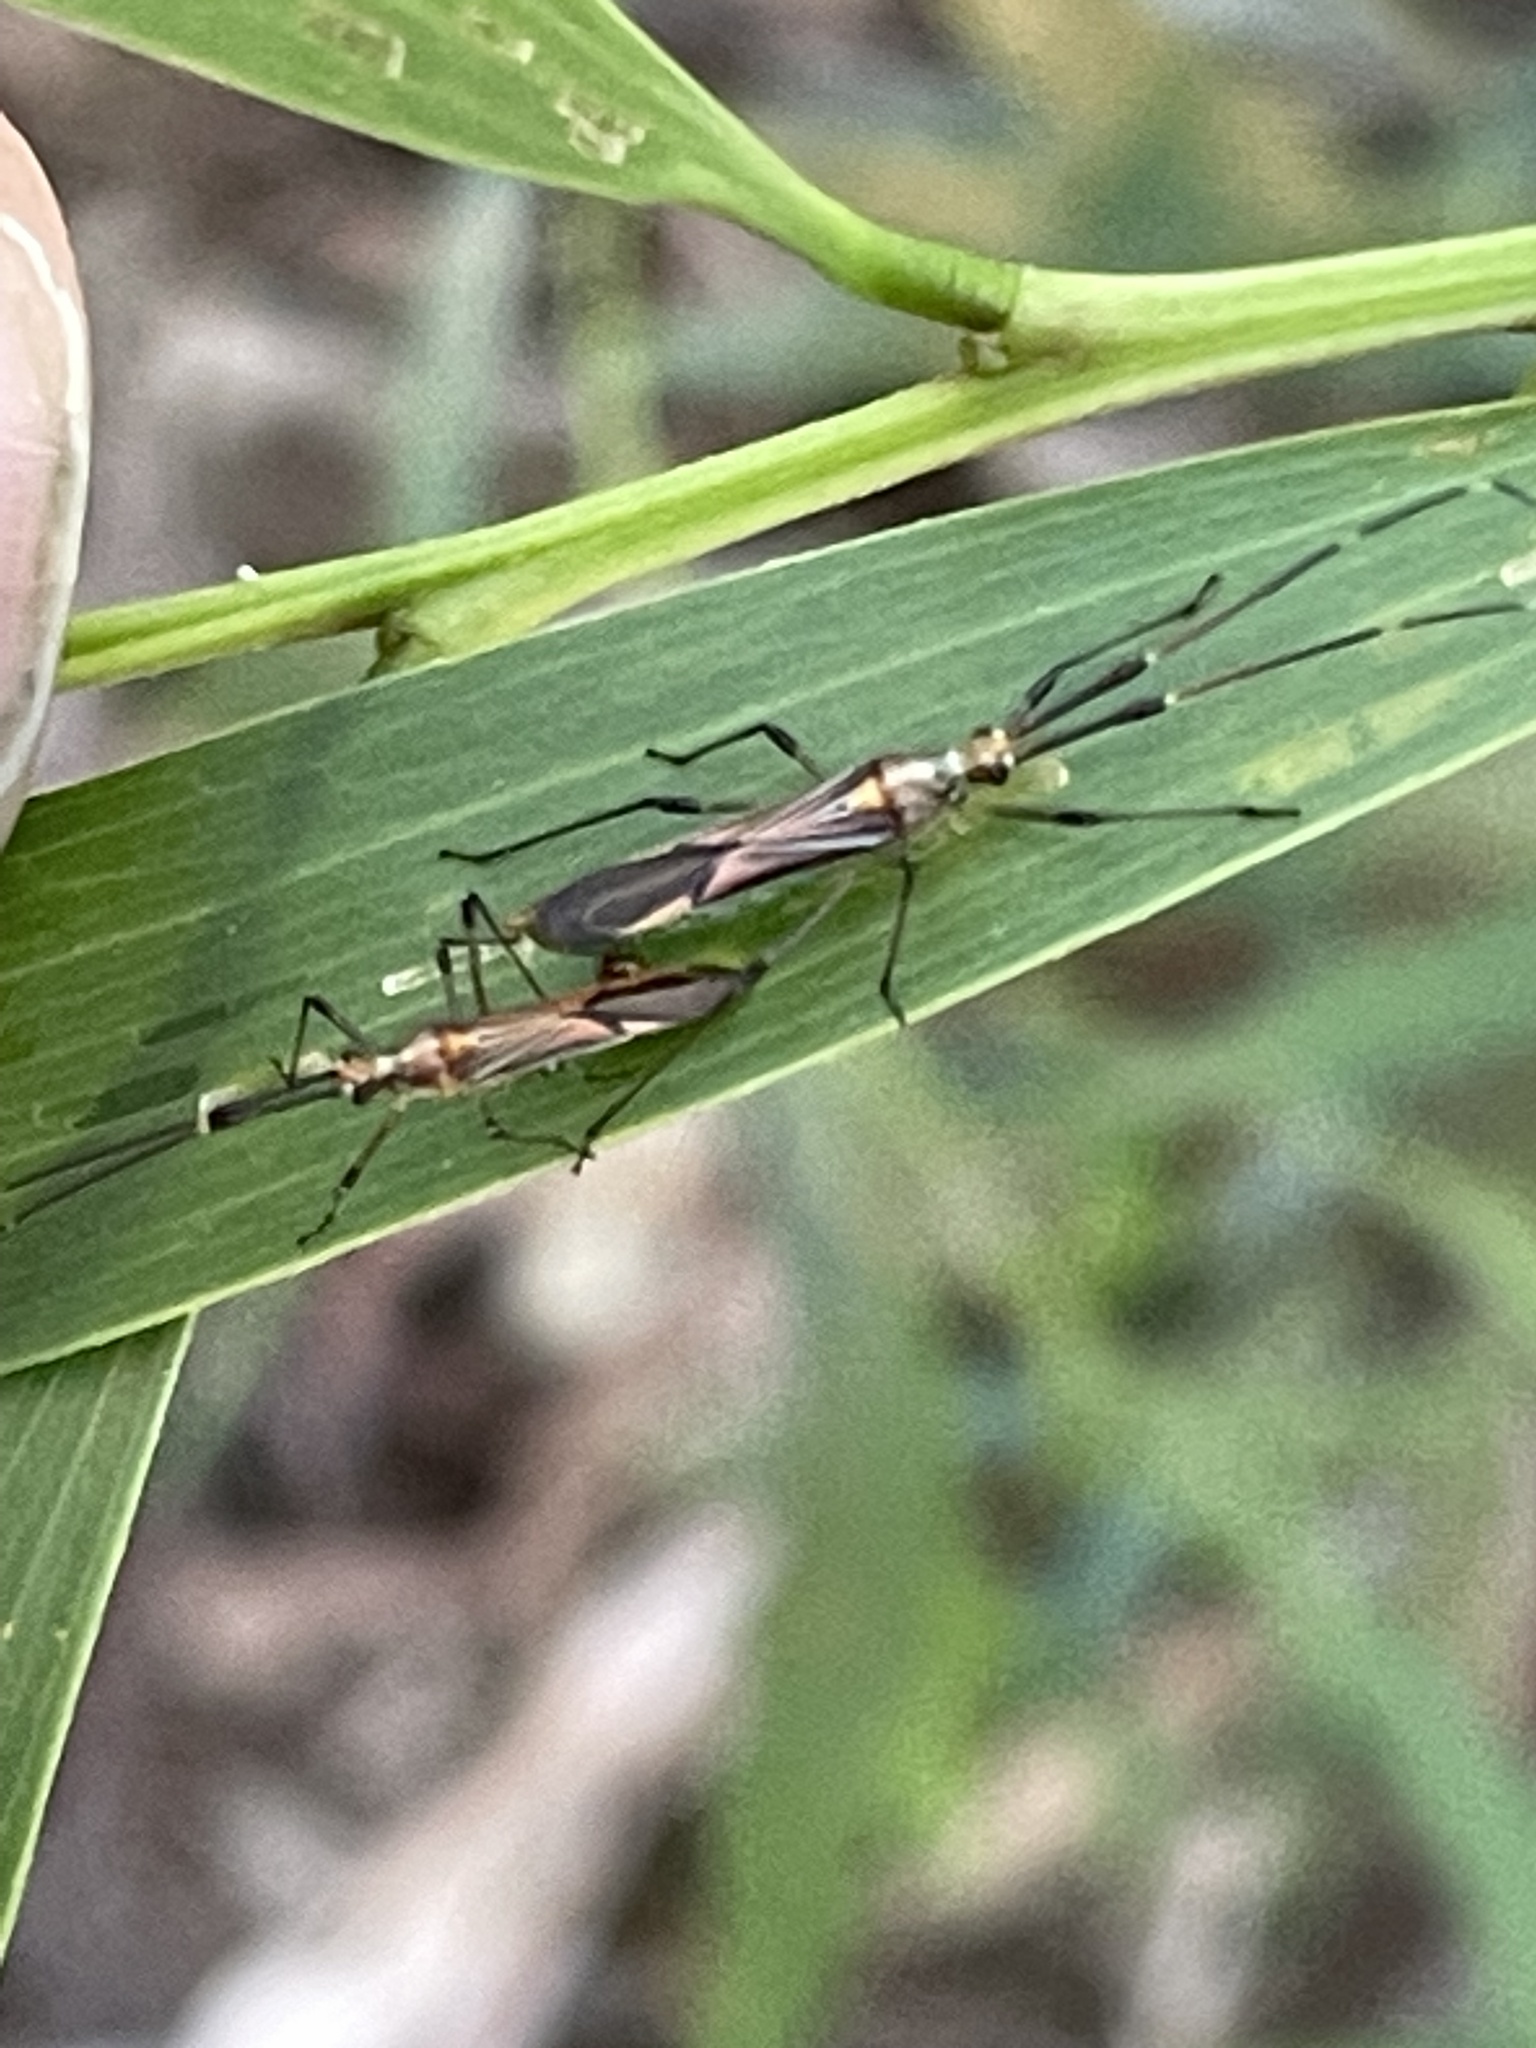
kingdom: Animalia
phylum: Arthropoda
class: Insecta
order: Hemiptera
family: Miridae
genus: Rayieria
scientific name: Rayieria
